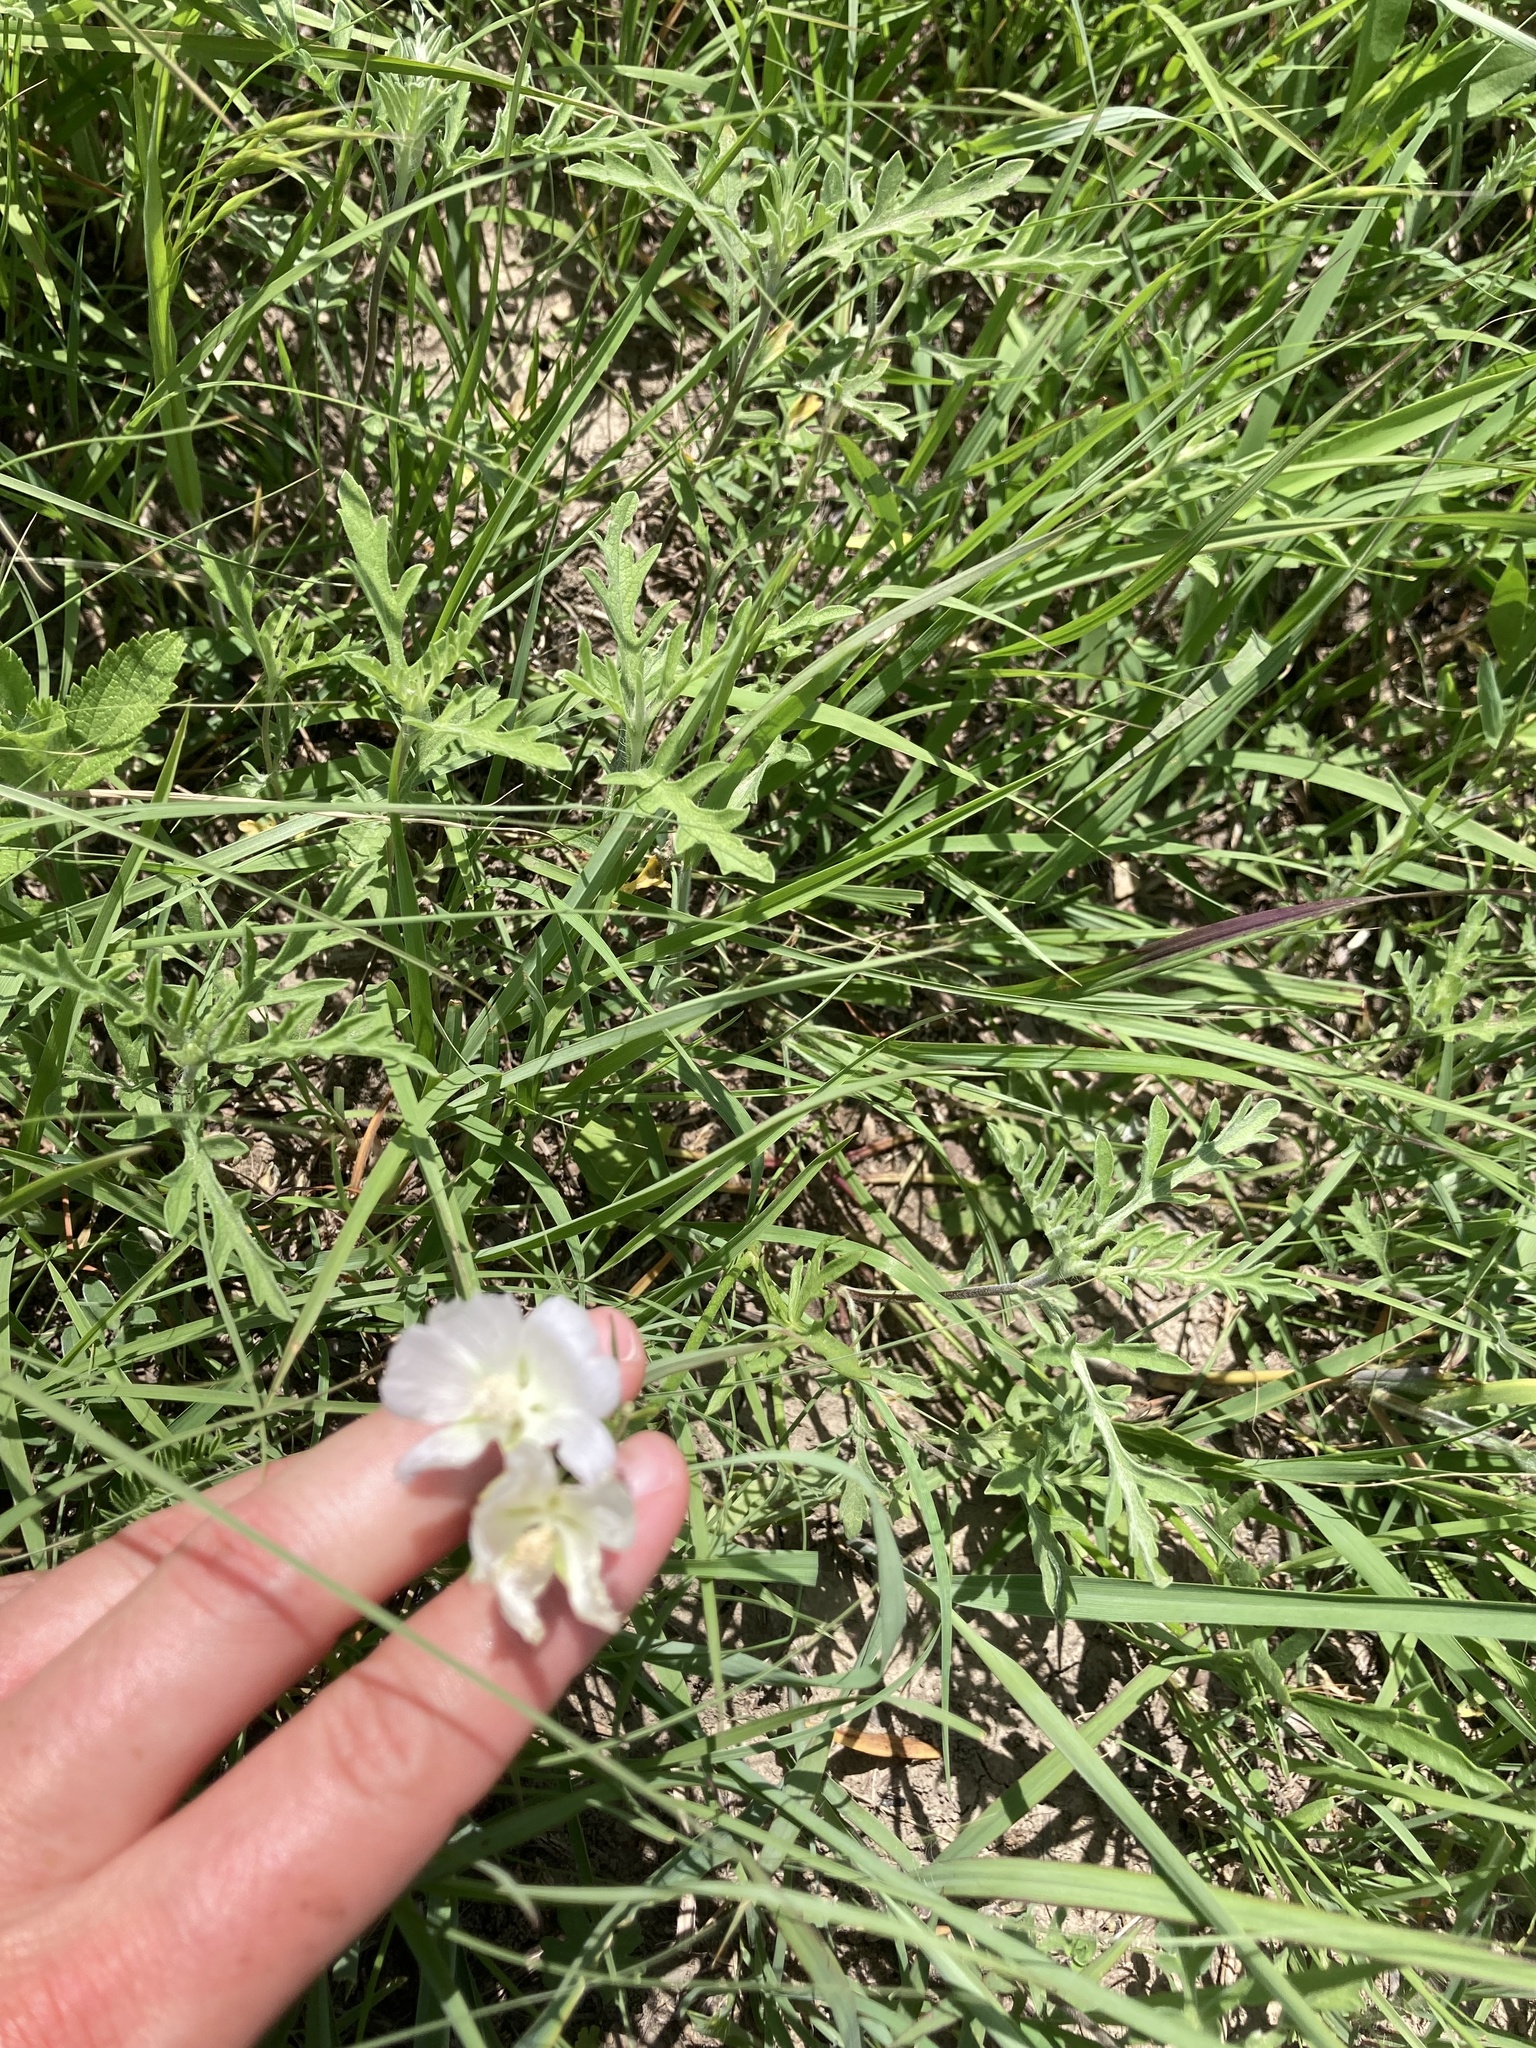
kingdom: Plantae
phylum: Tracheophyta
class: Magnoliopsida
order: Malvales
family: Malvaceae
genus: Callirhoe
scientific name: Callirhoe alcaeoides
